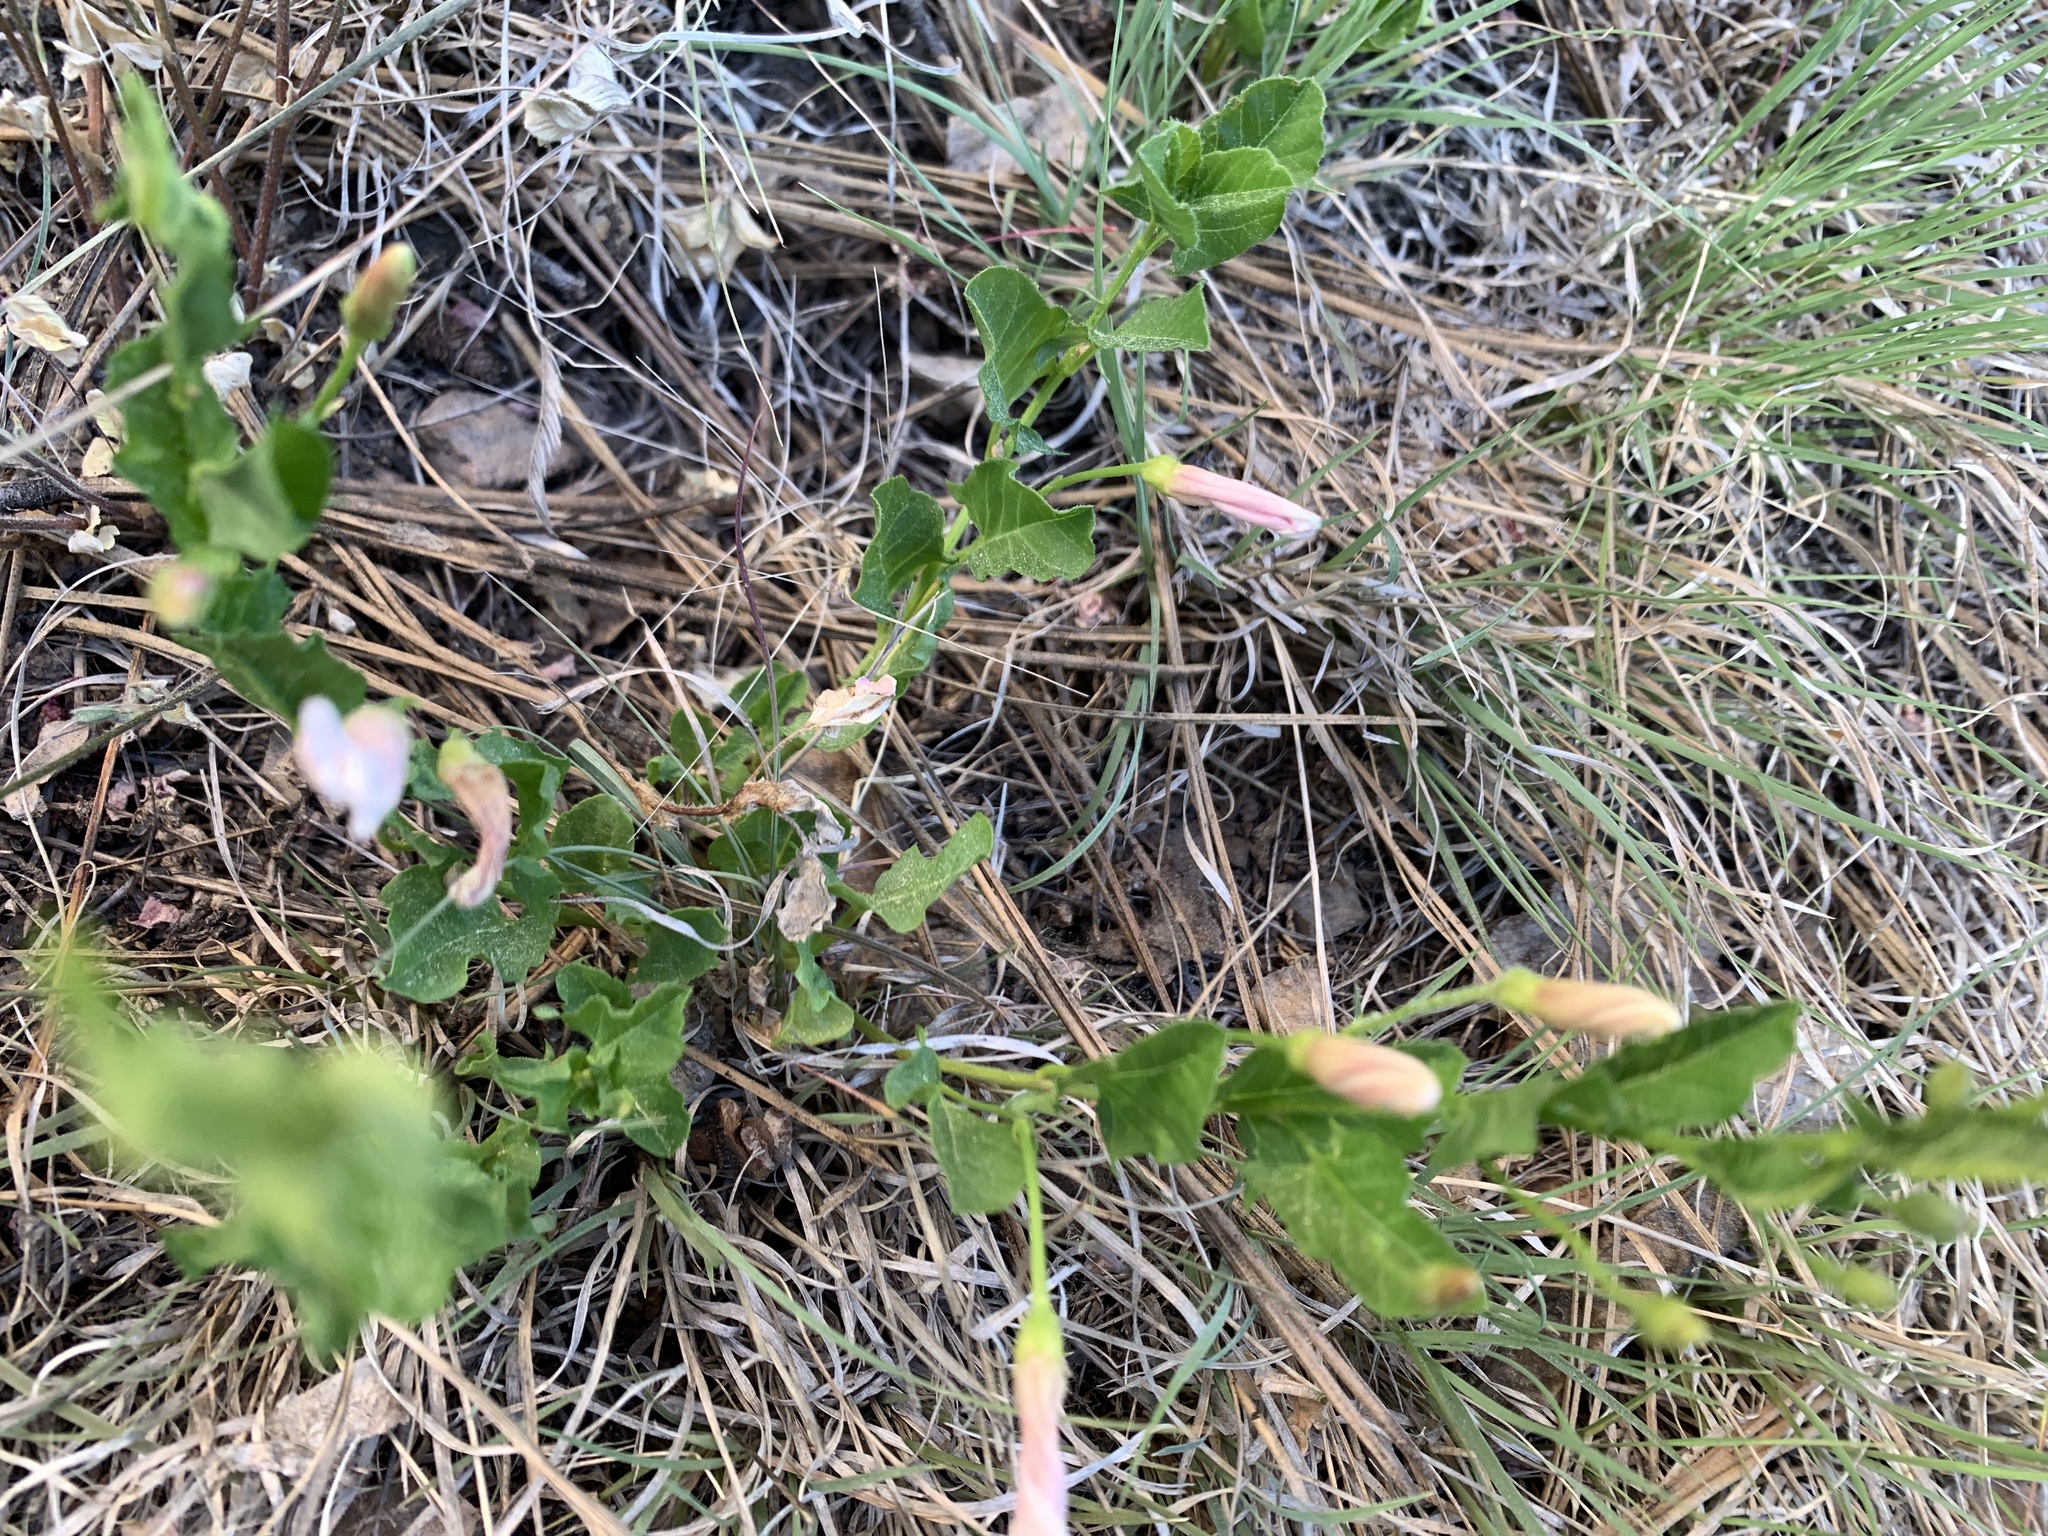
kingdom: Plantae
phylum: Tracheophyta
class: Magnoliopsida
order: Solanales
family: Convolvulaceae
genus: Convolvulus
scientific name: Convolvulus arvensis
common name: Field bindweed
